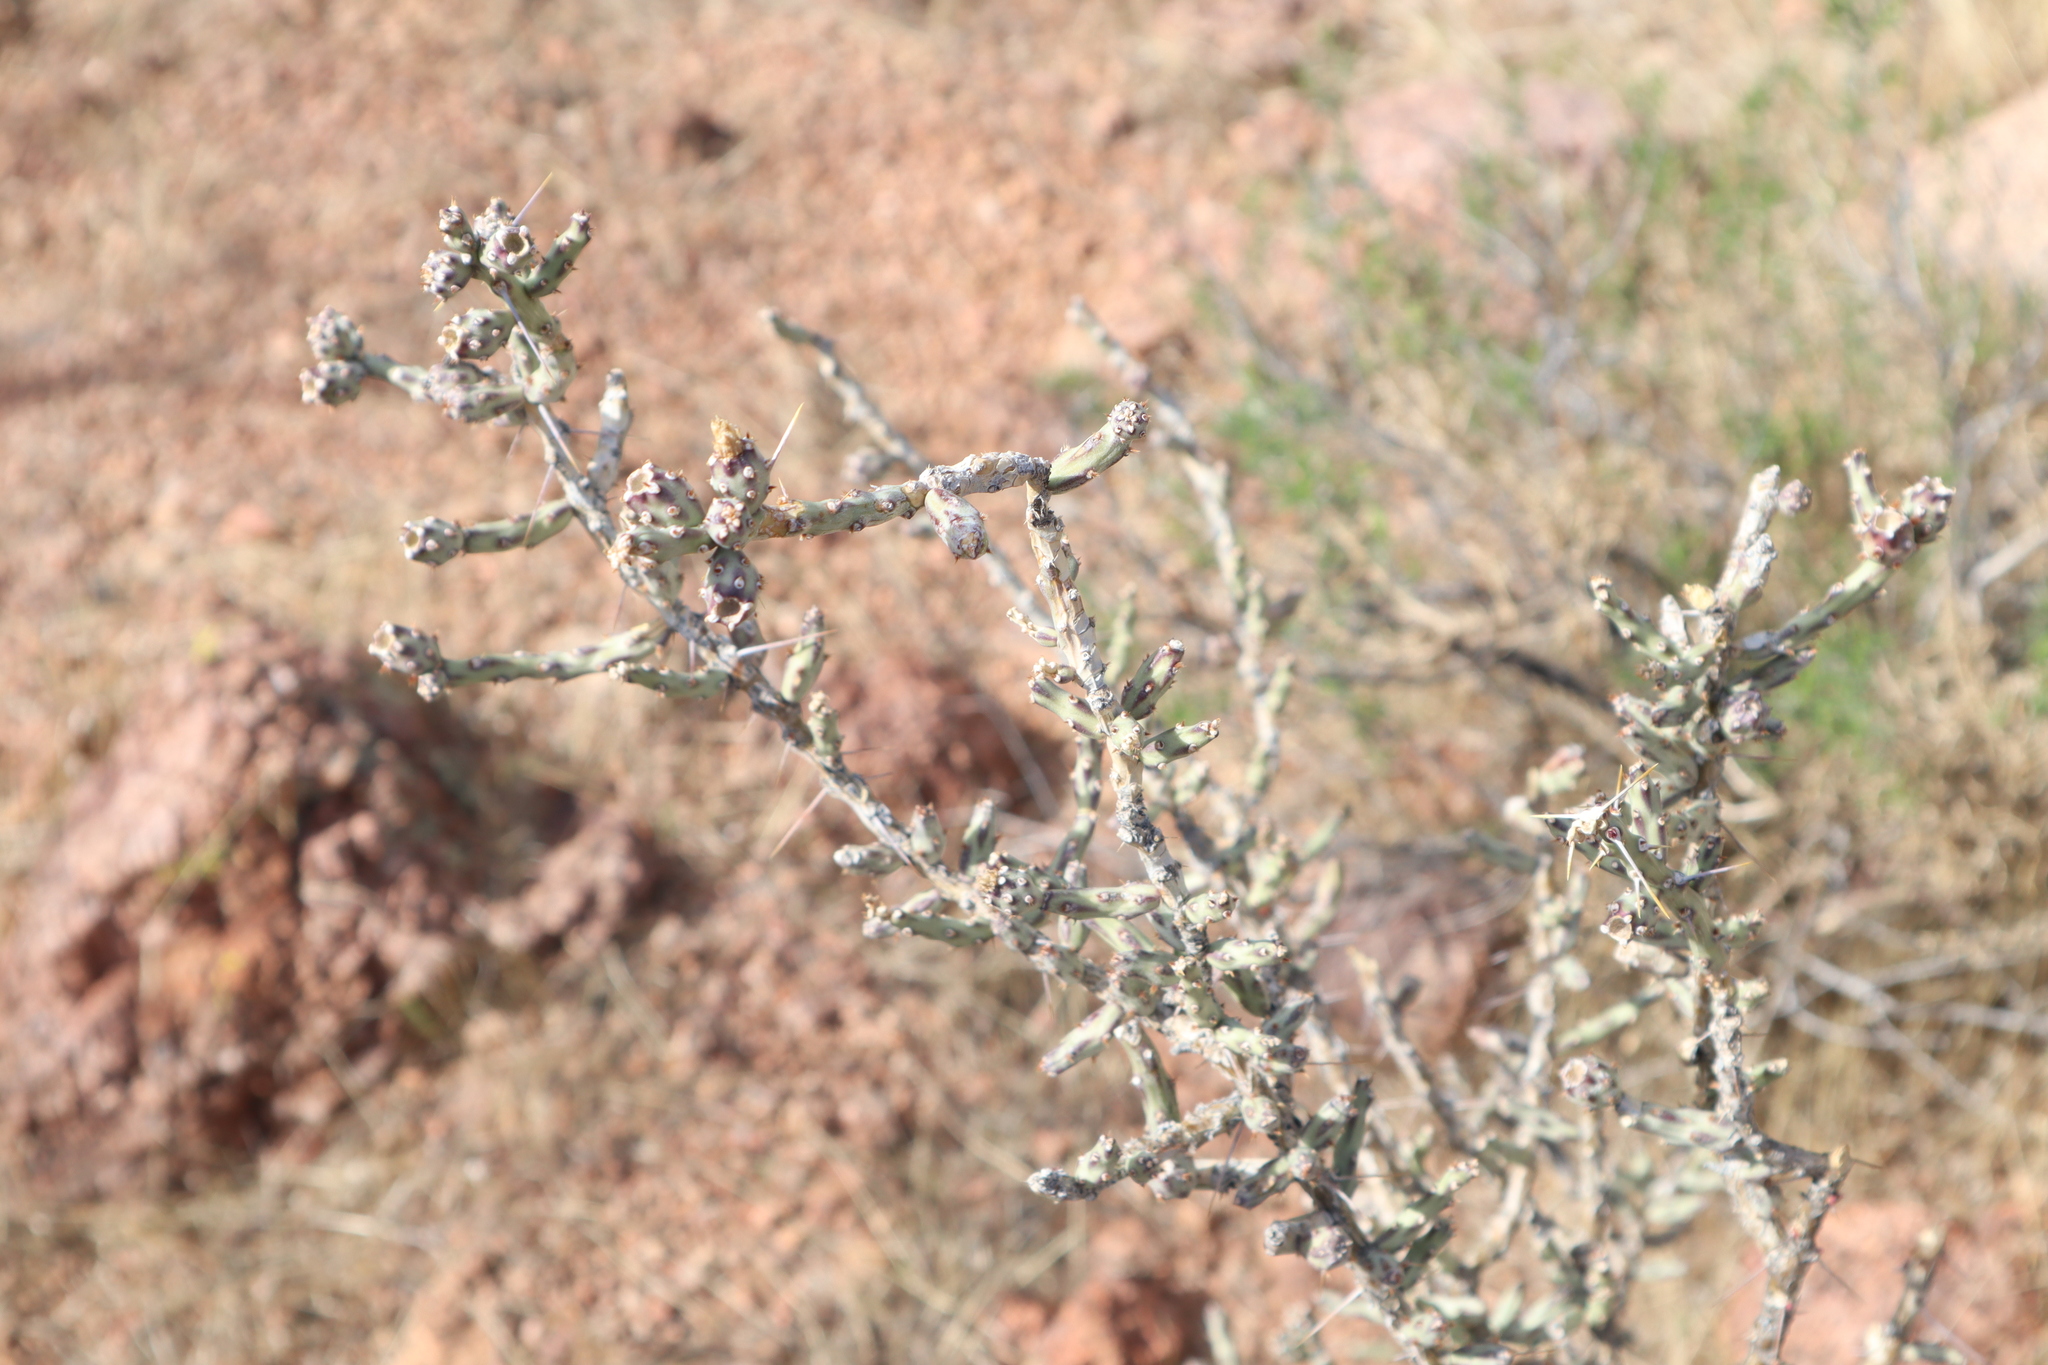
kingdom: Plantae
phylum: Tracheophyta
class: Magnoliopsida
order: Caryophyllales
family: Cactaceae
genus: Cylindropuntia
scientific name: Cylindropuntia leptocaulis
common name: Christmas cactus
